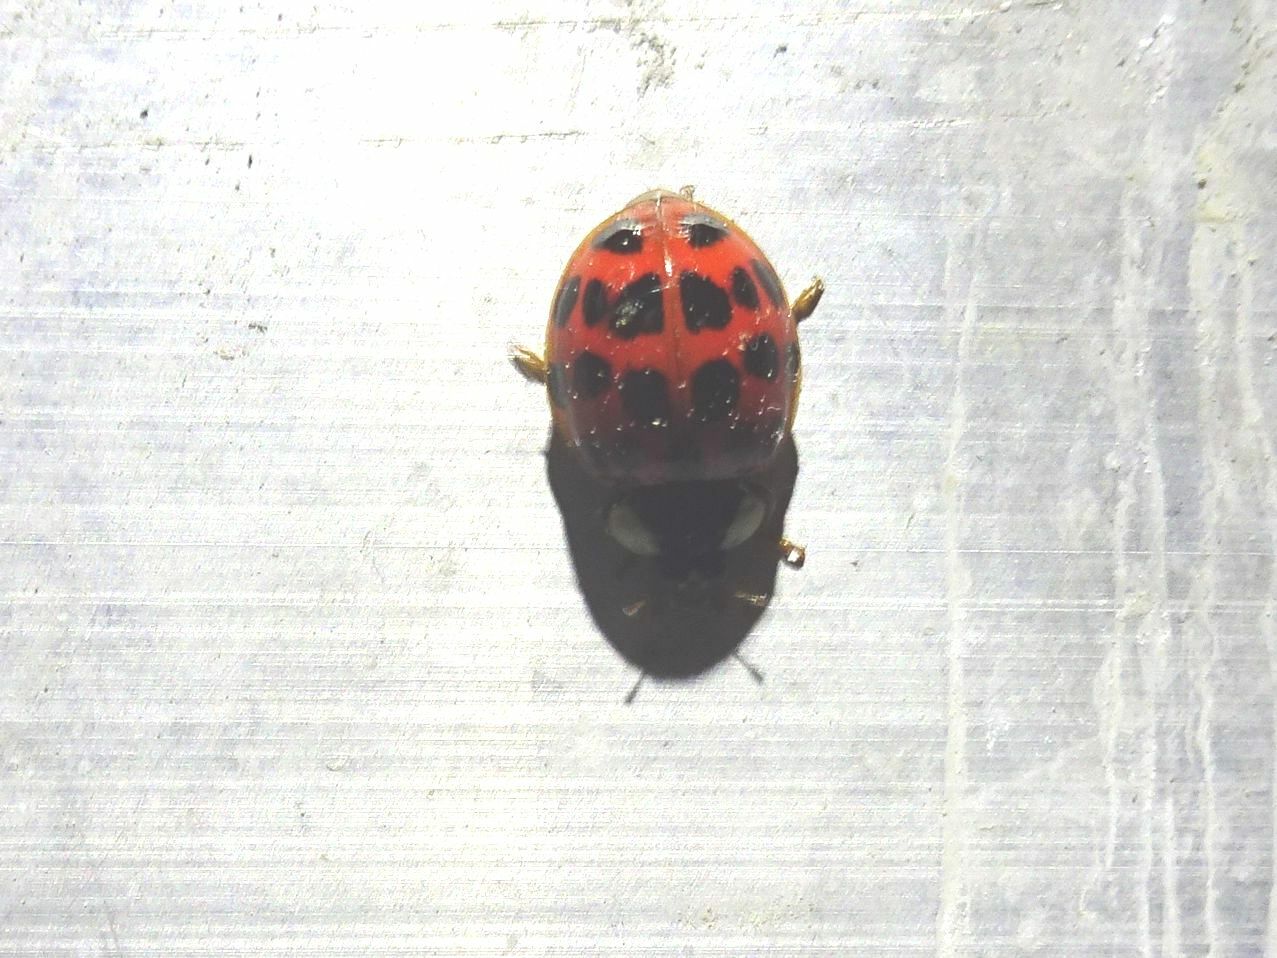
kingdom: Animalia
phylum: Arthropoda
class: Insecta
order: Coleoptera
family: Coccinellidae
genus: Harmonia
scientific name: Harmonia axyridis
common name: Harlequin ladybird
